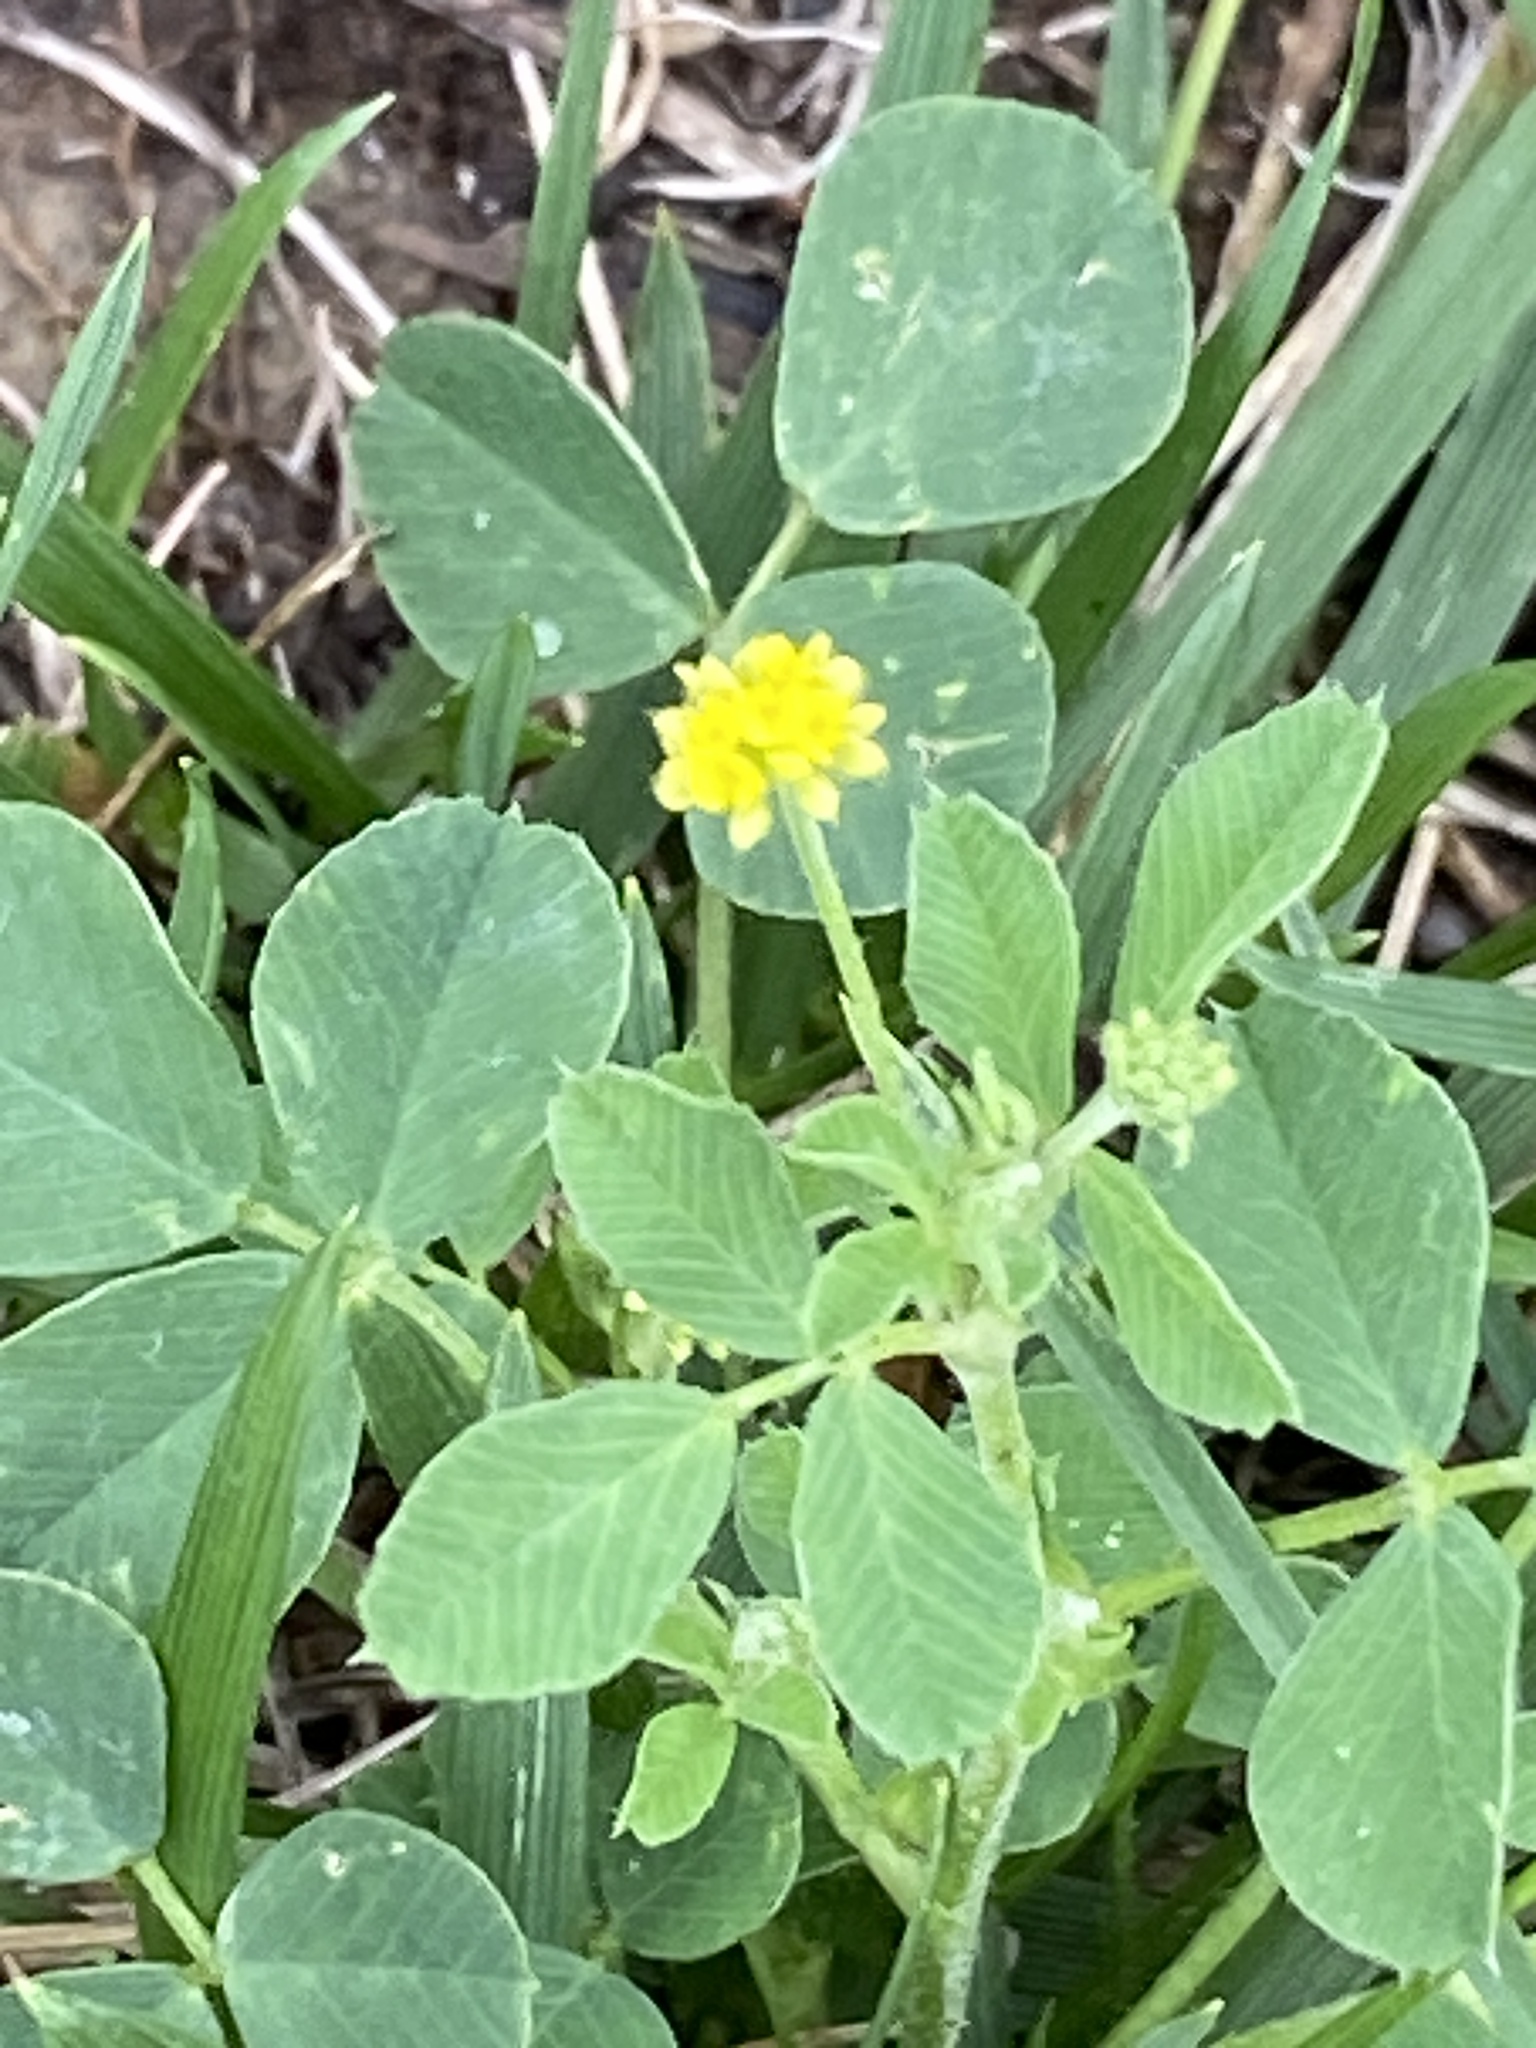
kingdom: Plantae
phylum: Tracheophyta
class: Magnoliopsida
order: Fabales
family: Fabaceae
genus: Medicago
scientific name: Medicago lupulina
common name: Black medick
